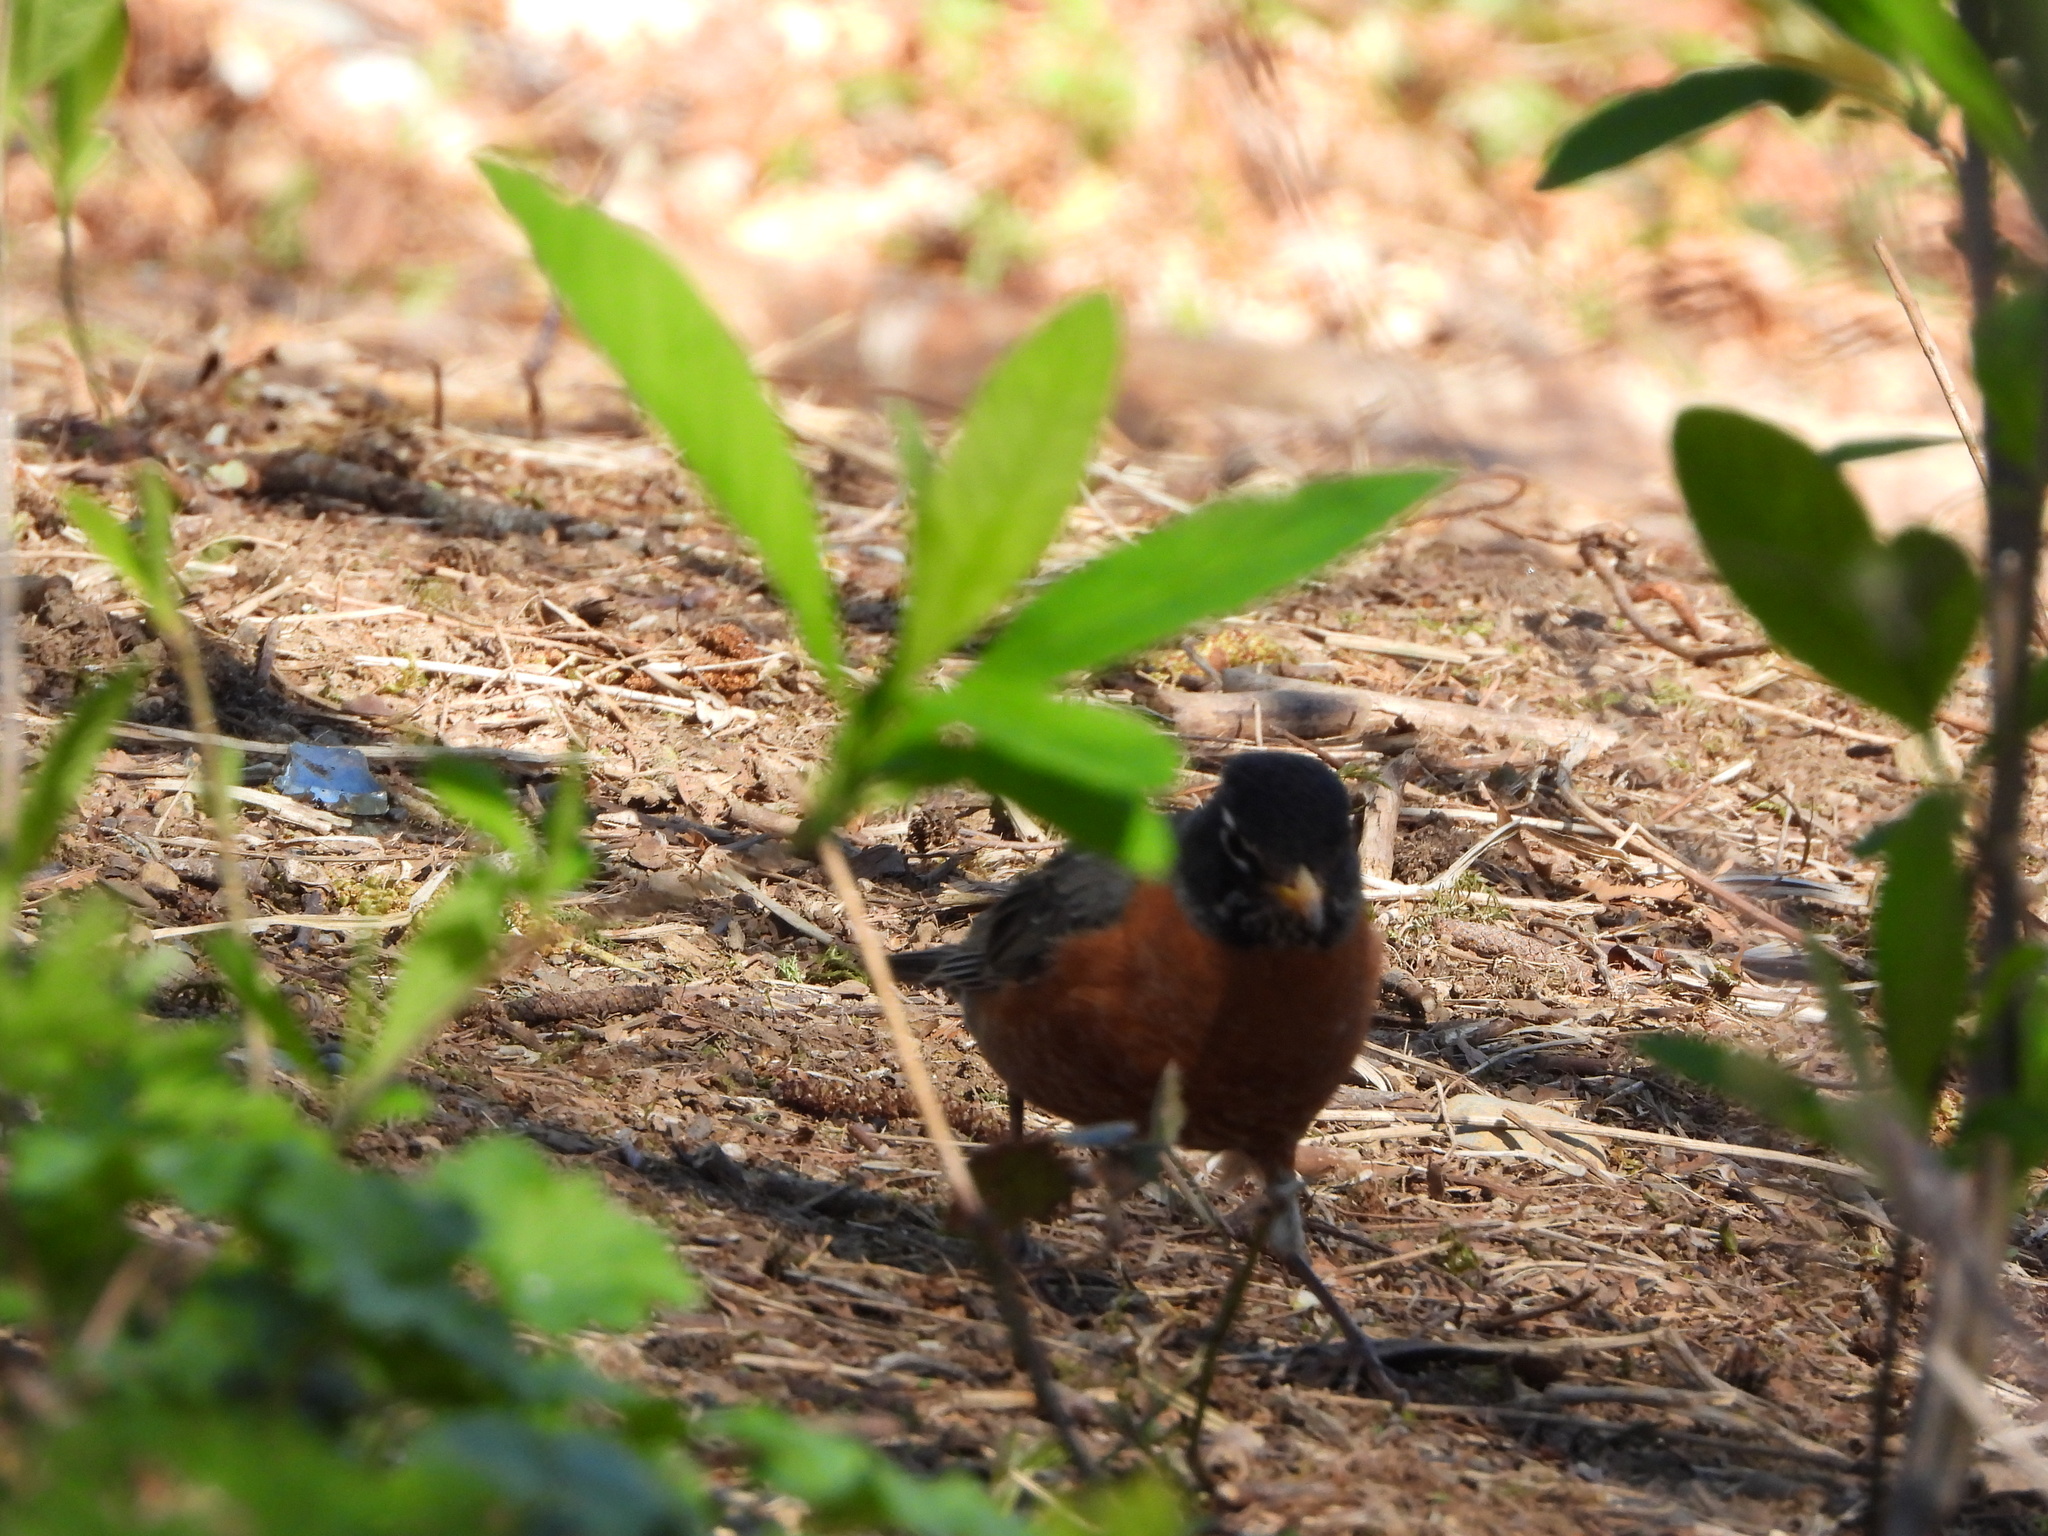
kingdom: Animalia
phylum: Chordata
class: Aves
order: Passeriformes
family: Turdidae
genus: Turdus
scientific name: Turdus migratorius
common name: American robin
